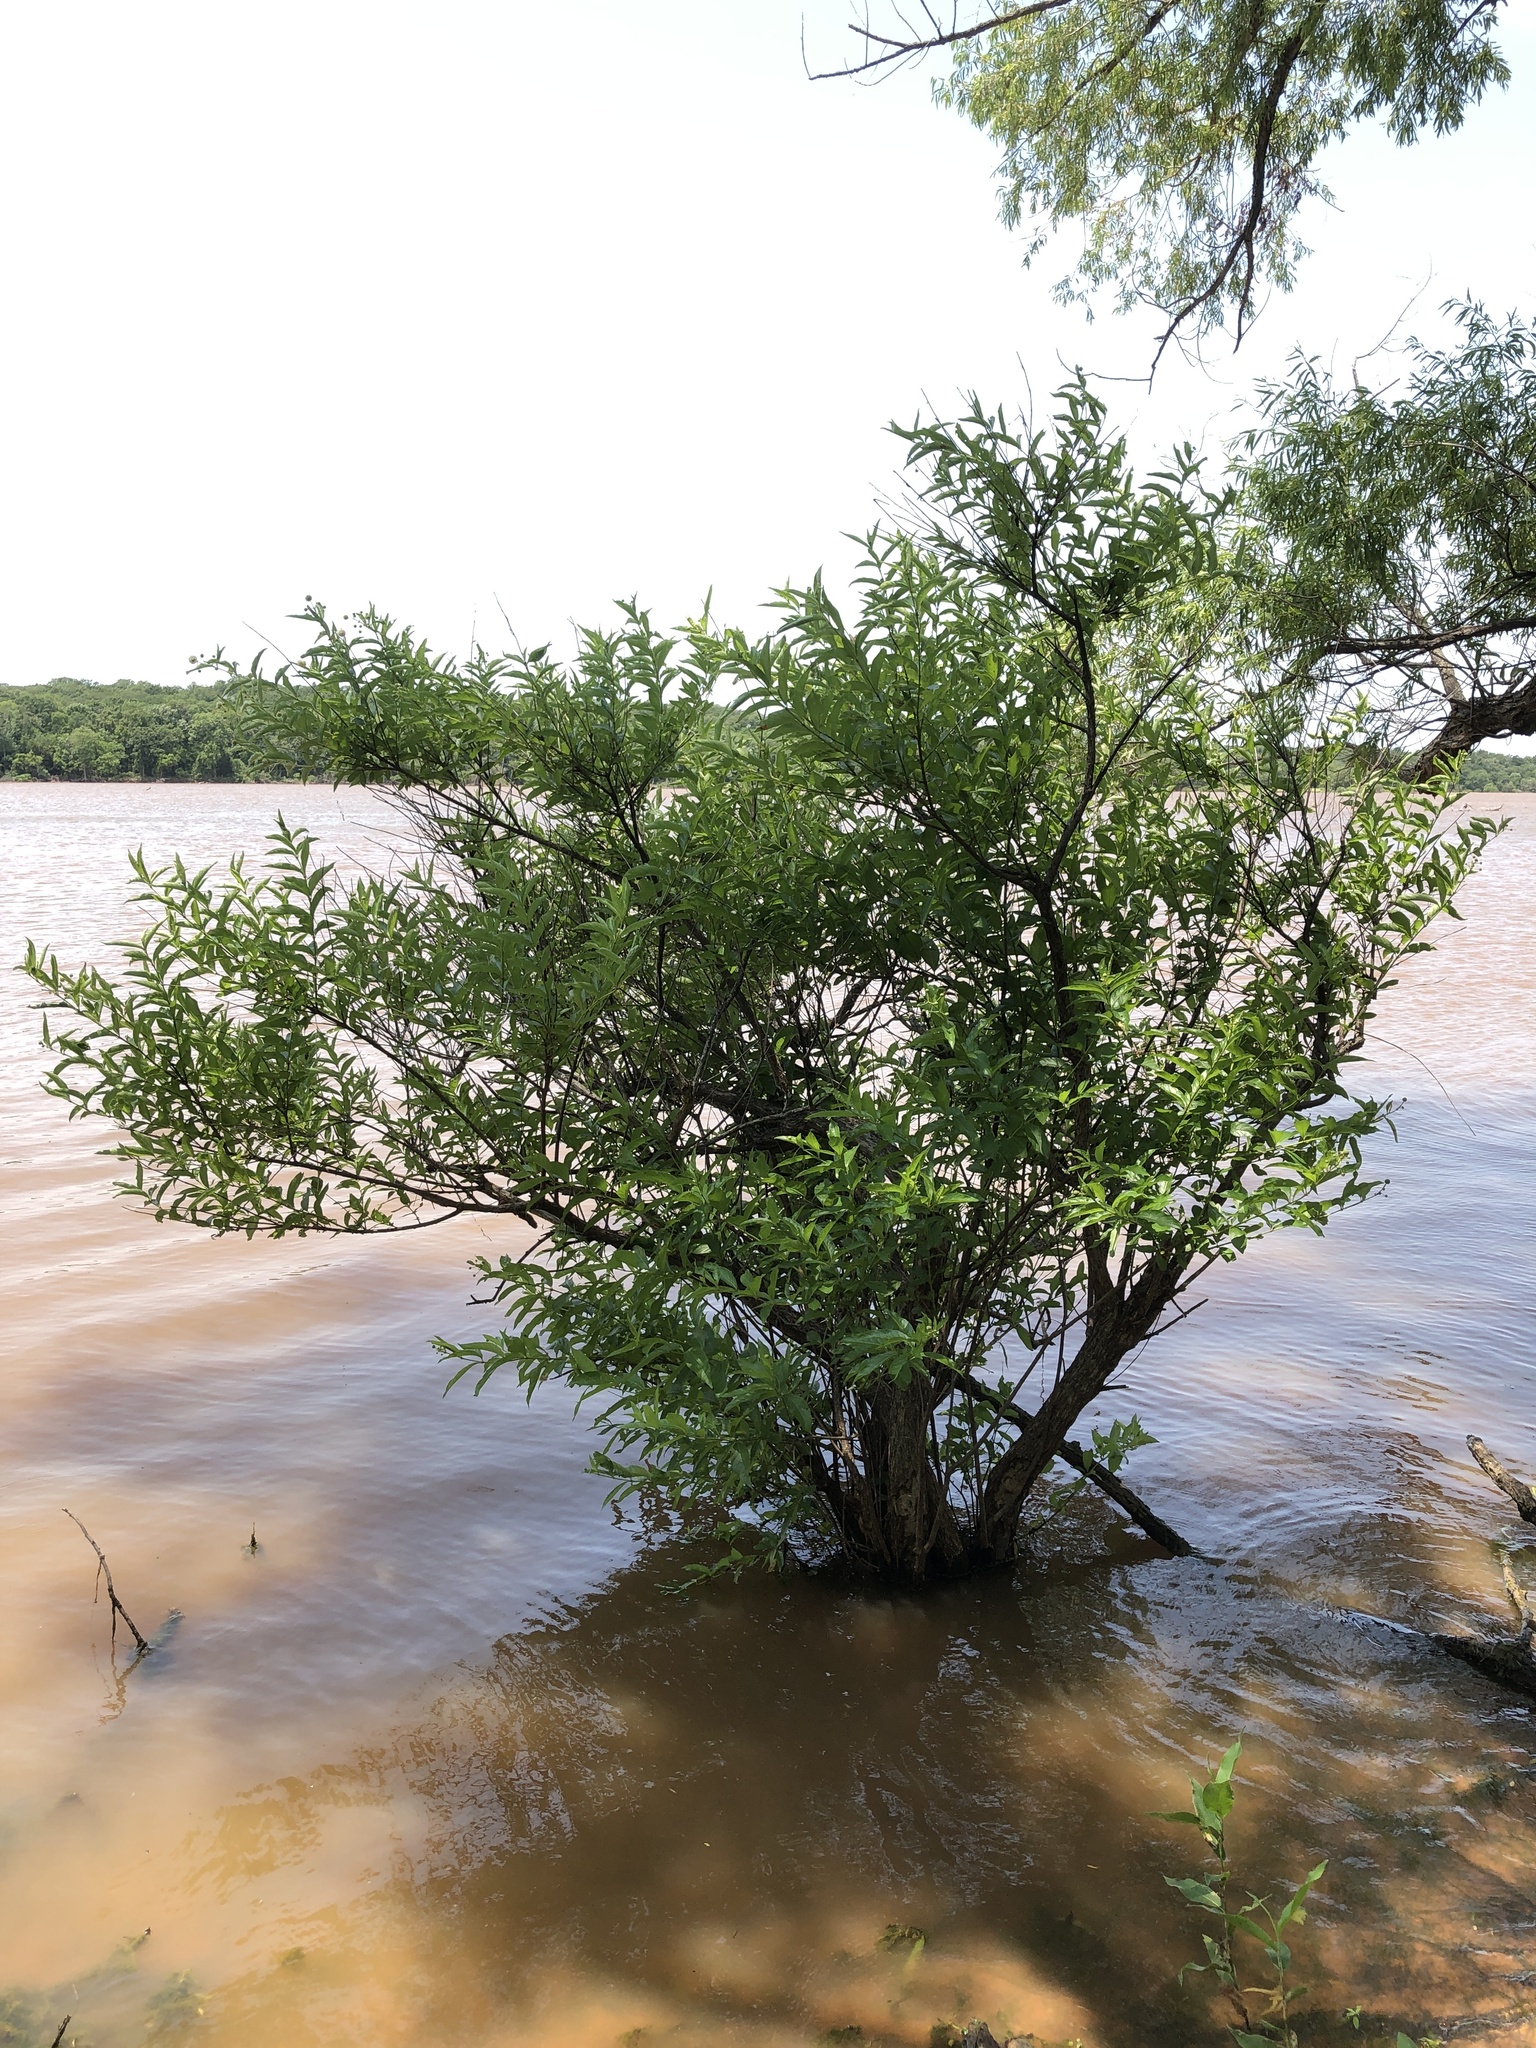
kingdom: Plantae
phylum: Tracheophyta
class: Magnoliopsida
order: Gentianales
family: Rubiaceae
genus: Cephalanthus
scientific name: Cephalanthus occidentalis
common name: Button-willow
